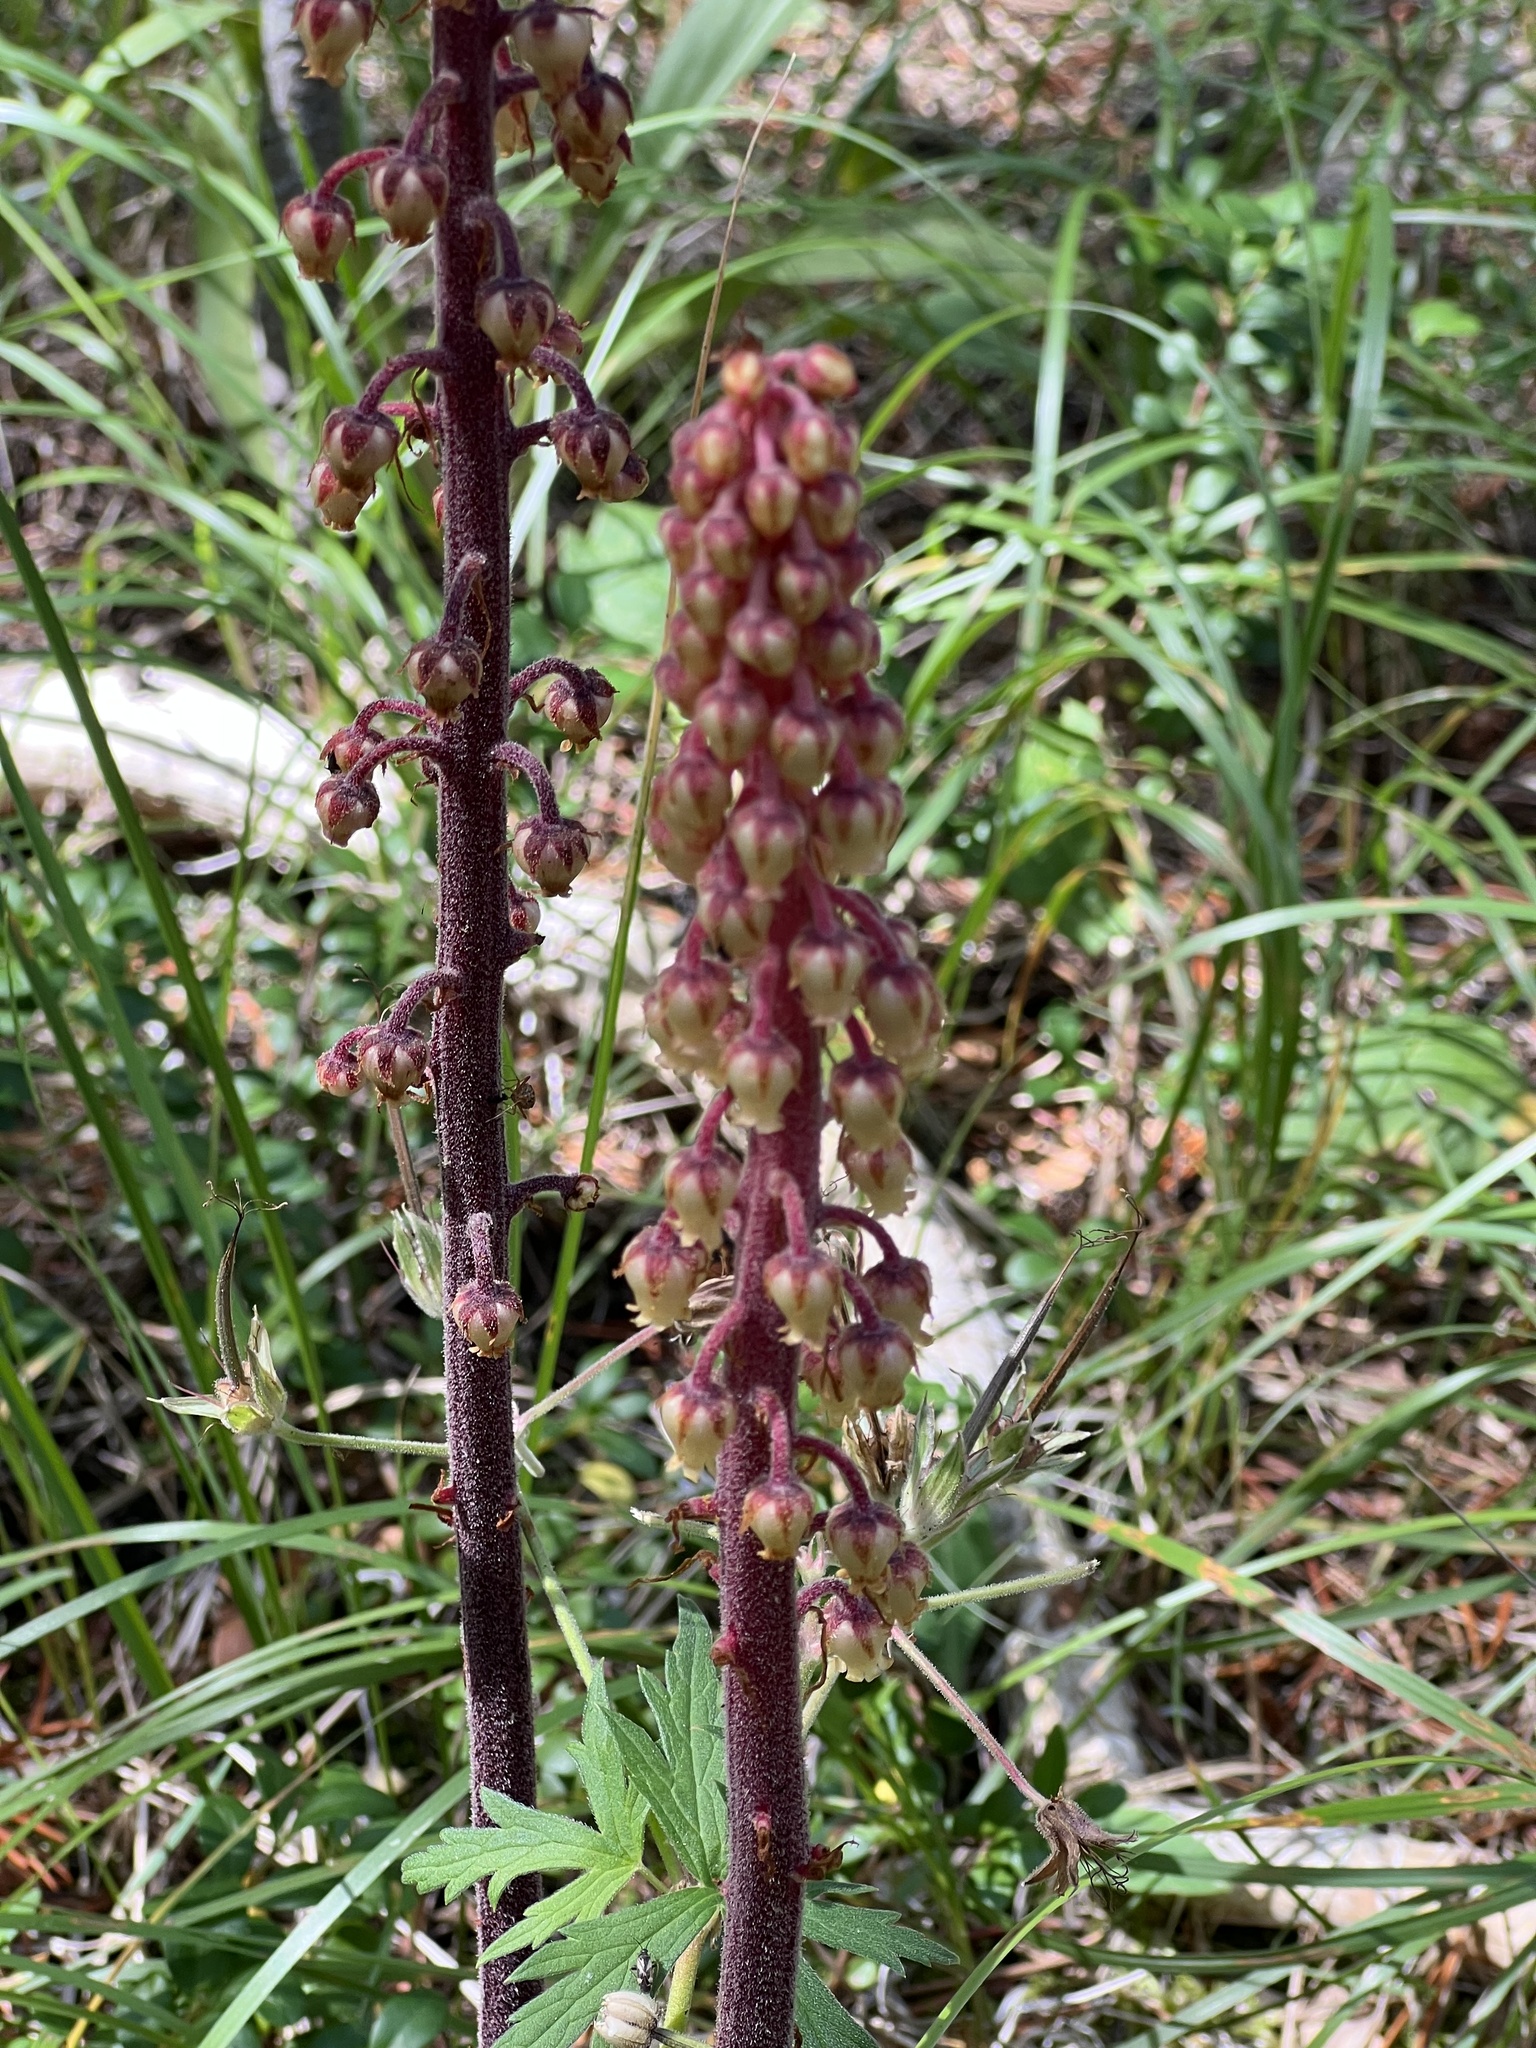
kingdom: Plantae
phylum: Tracheophyta
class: Magnoliopsida
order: Ericales
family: Ericaceae
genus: Pterospora
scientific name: Pterospora andromedea
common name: Giant bird's-nest
